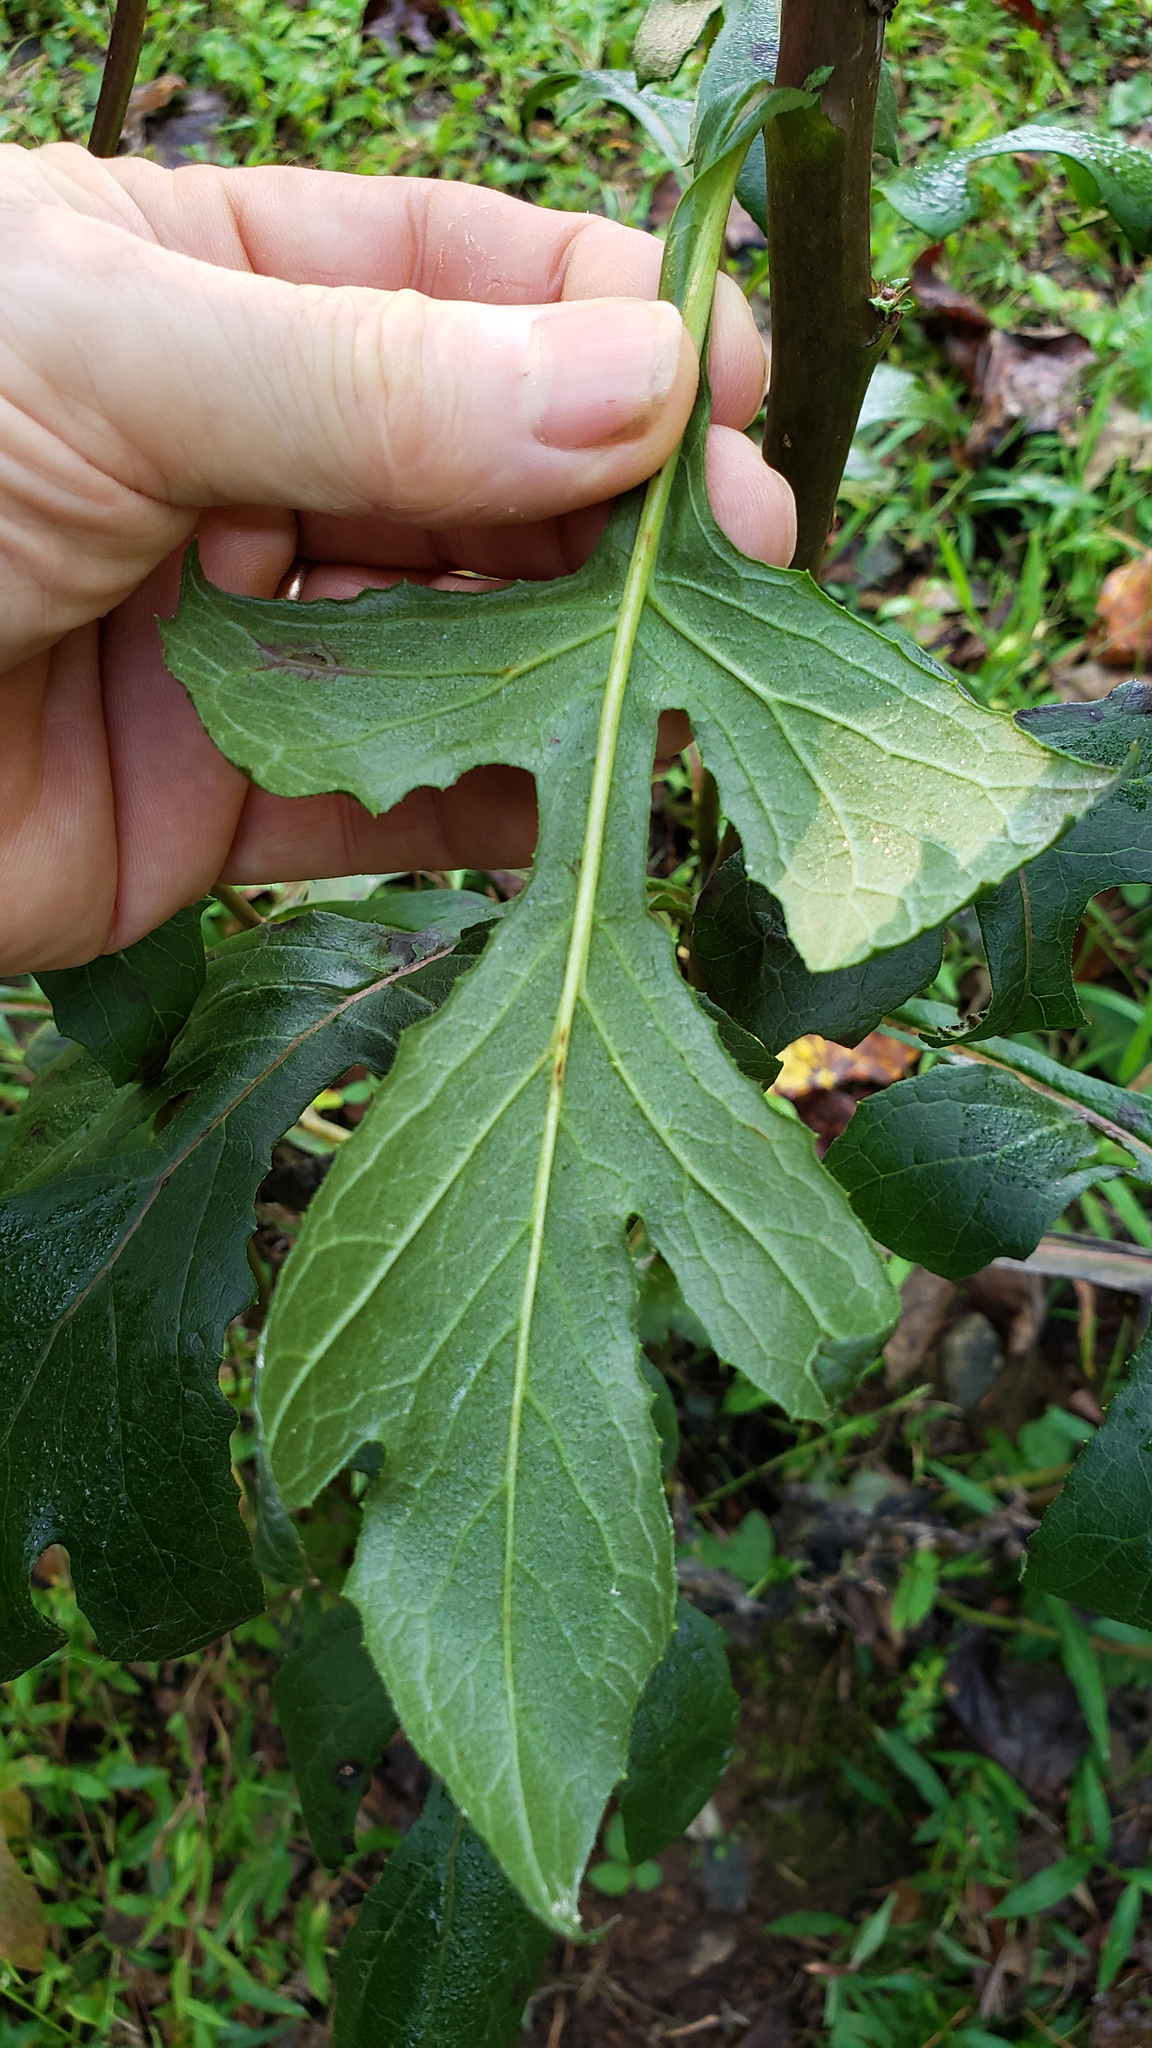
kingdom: Plantae
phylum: Tracheophyta
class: Magnoliopsida
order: Asterales
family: Asteraceae
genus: Nabalus
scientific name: Nabalus serpentarius
